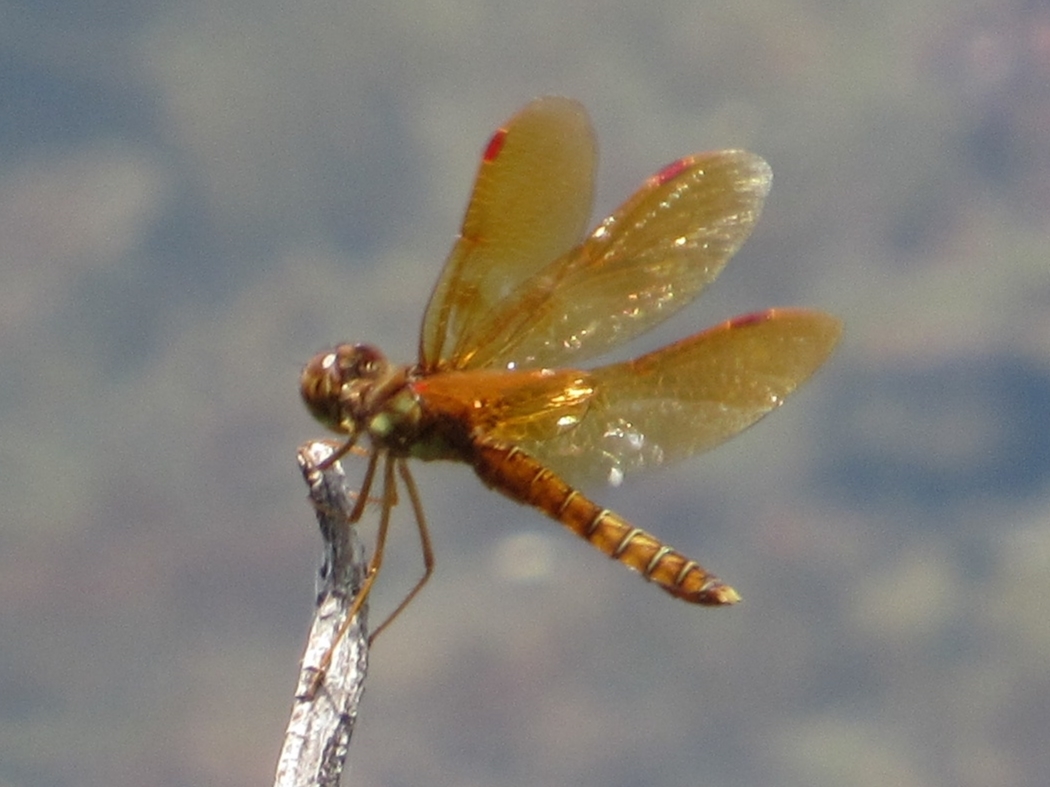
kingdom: Animalia
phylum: Arthropoda
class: Insecta
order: Odonata
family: Libellulidae
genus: Perithemis
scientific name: Perithemis tenera
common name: Eastern amberwing
